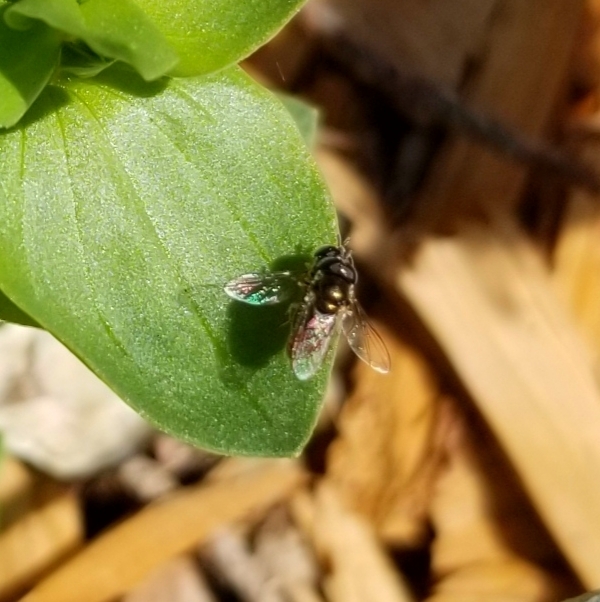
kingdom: Animalia
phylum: Arthropoda
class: Insecta
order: Diptera
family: Syrphidae
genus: Paragus
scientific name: Paragus haemorrhous
